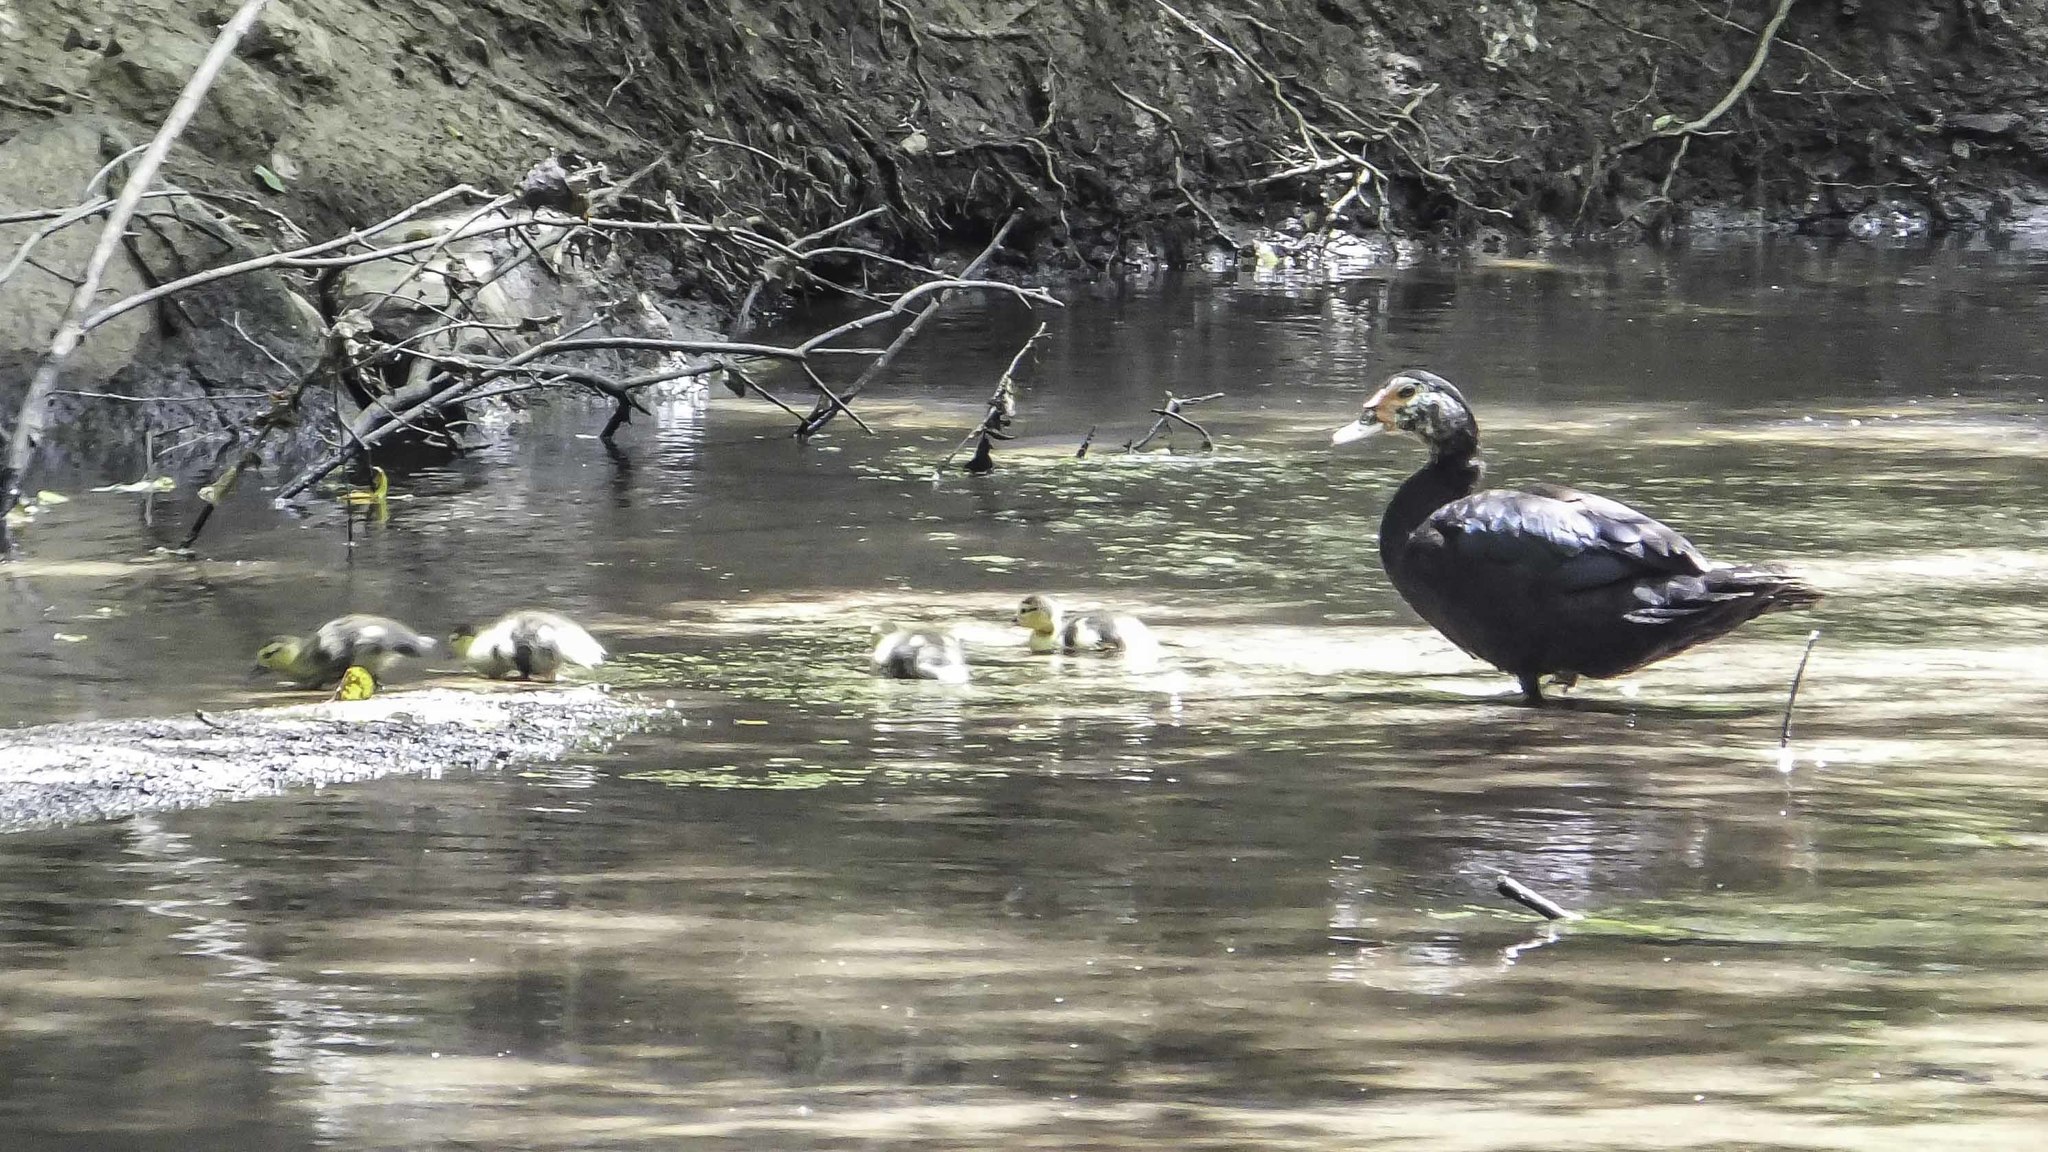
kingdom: Animalia
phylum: Chordata
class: Aves
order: Anseriformes
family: Anatidae
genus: Cairina
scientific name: Cairina moschata
